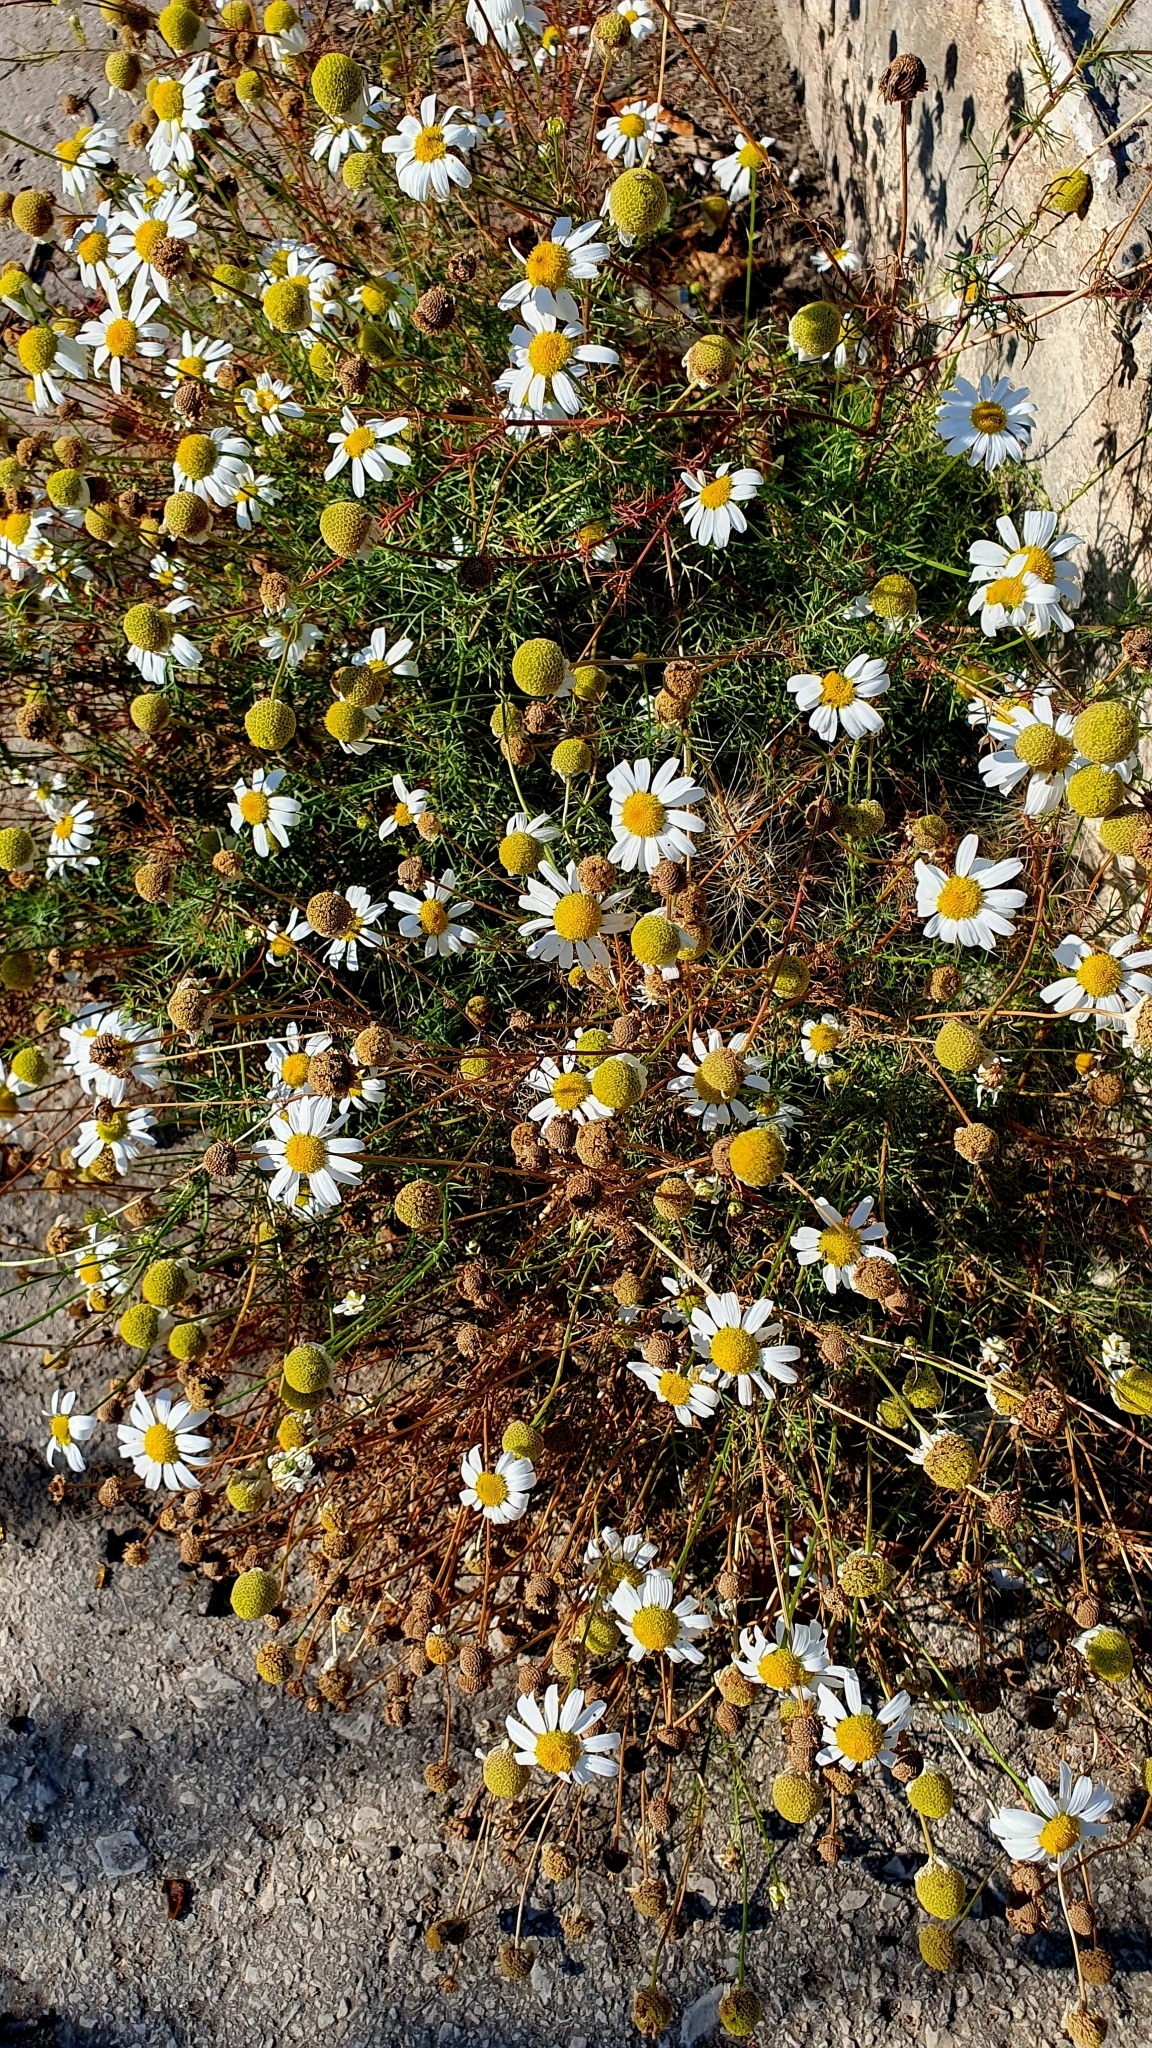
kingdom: Plantae
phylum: Tracheophyta
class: Magnoliopsida
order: Asterales
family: Asteraceae
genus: Tripleurospermum
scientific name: Tripleurospermum inodorum
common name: Scentless mayweed
